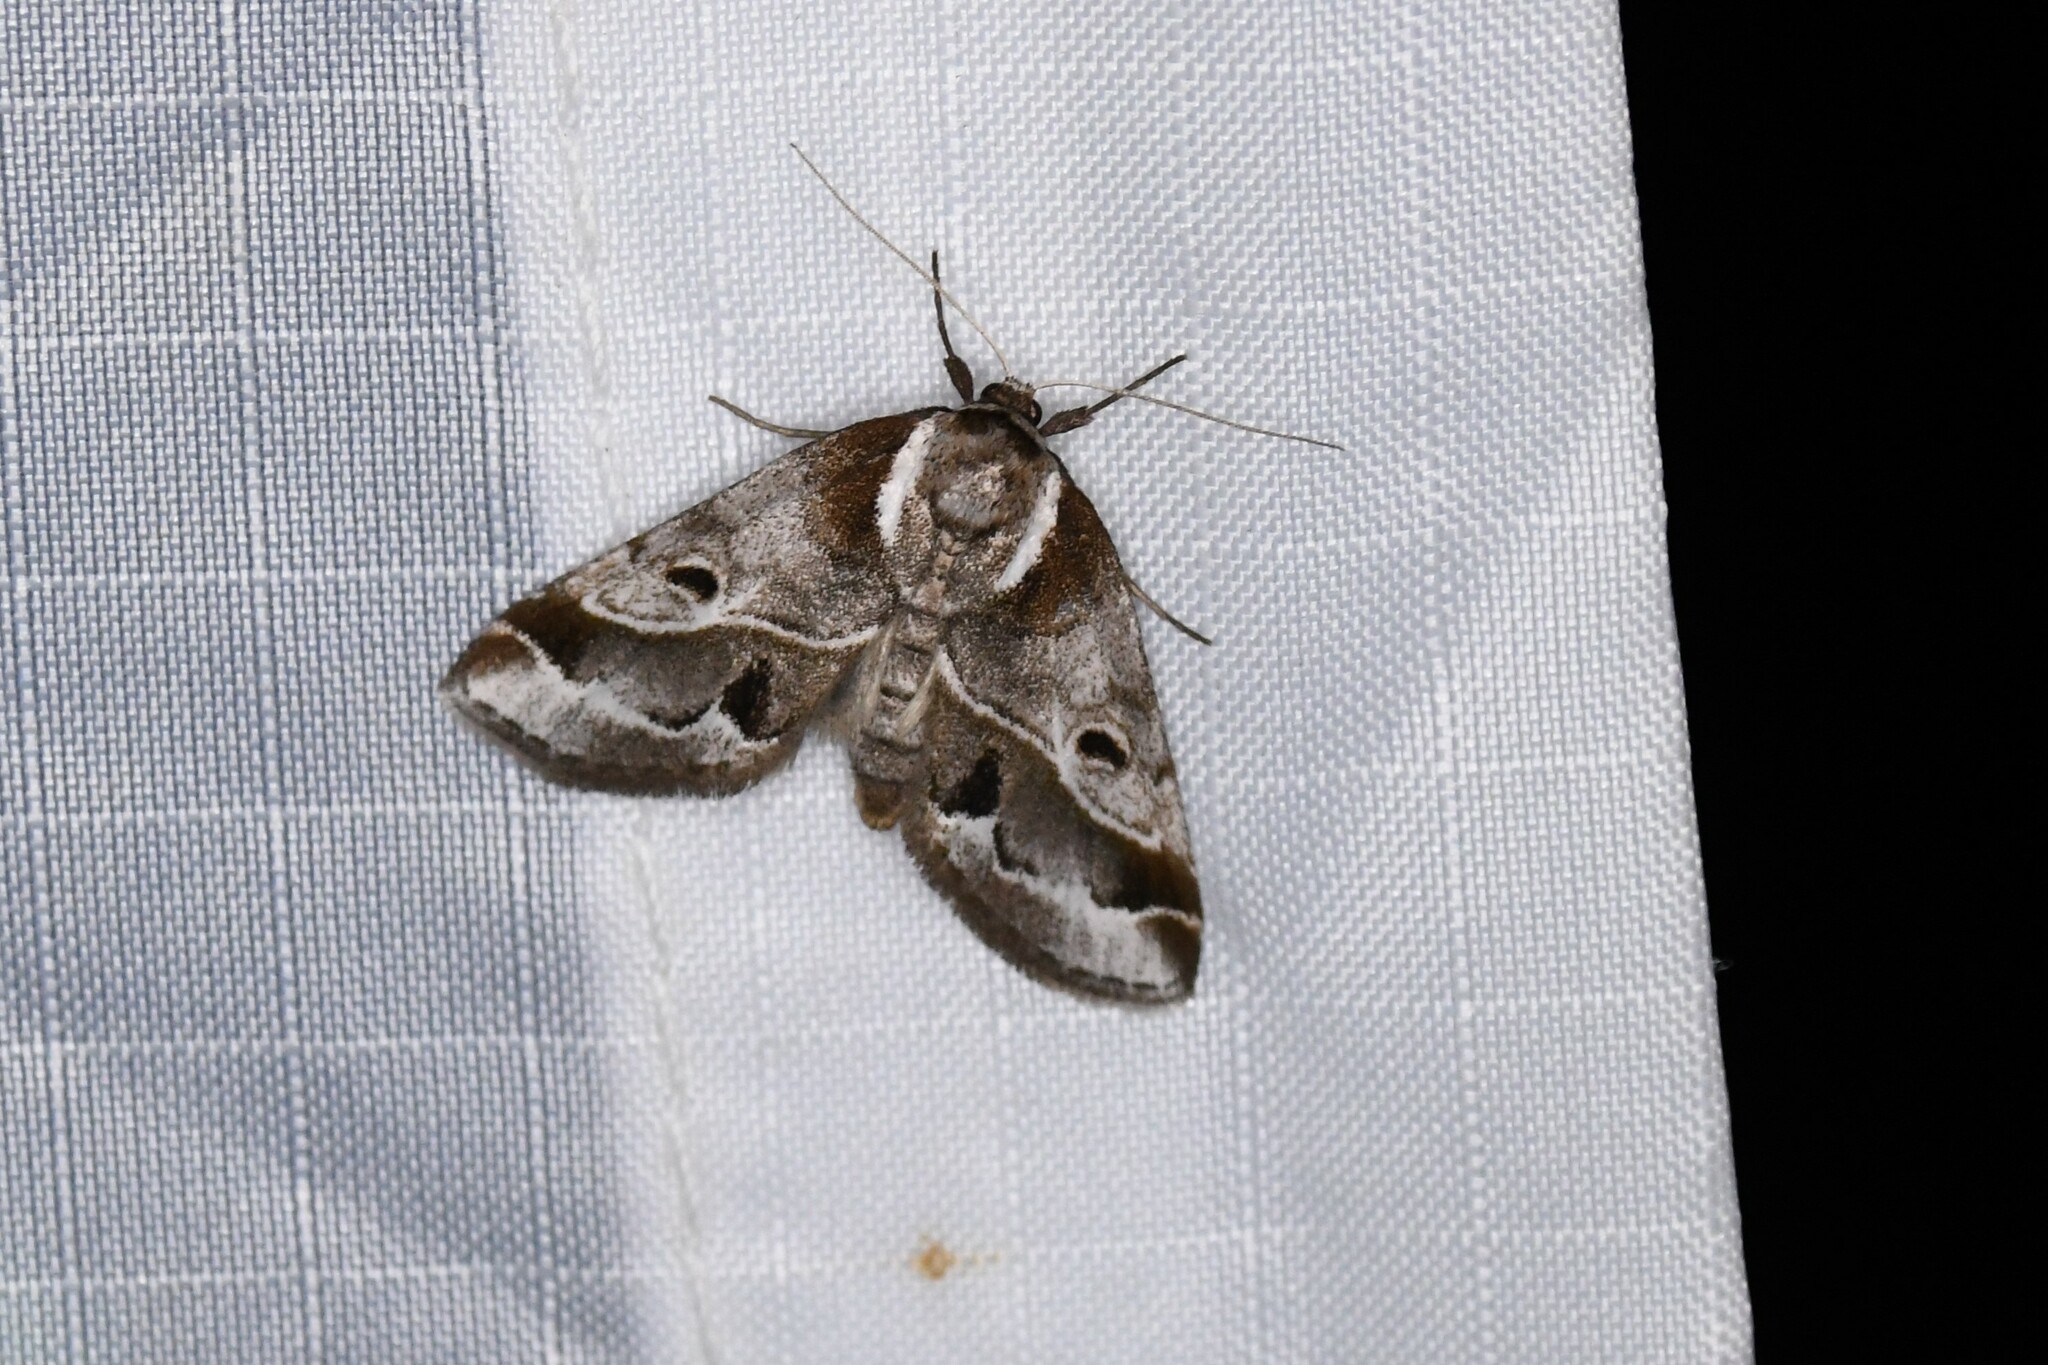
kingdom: Animalia
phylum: Arthropoda
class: Insecta
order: Lepidoptera
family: Nolidae
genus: Baileya
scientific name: Baileya doubledayi
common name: Doubleday's baileya moth
